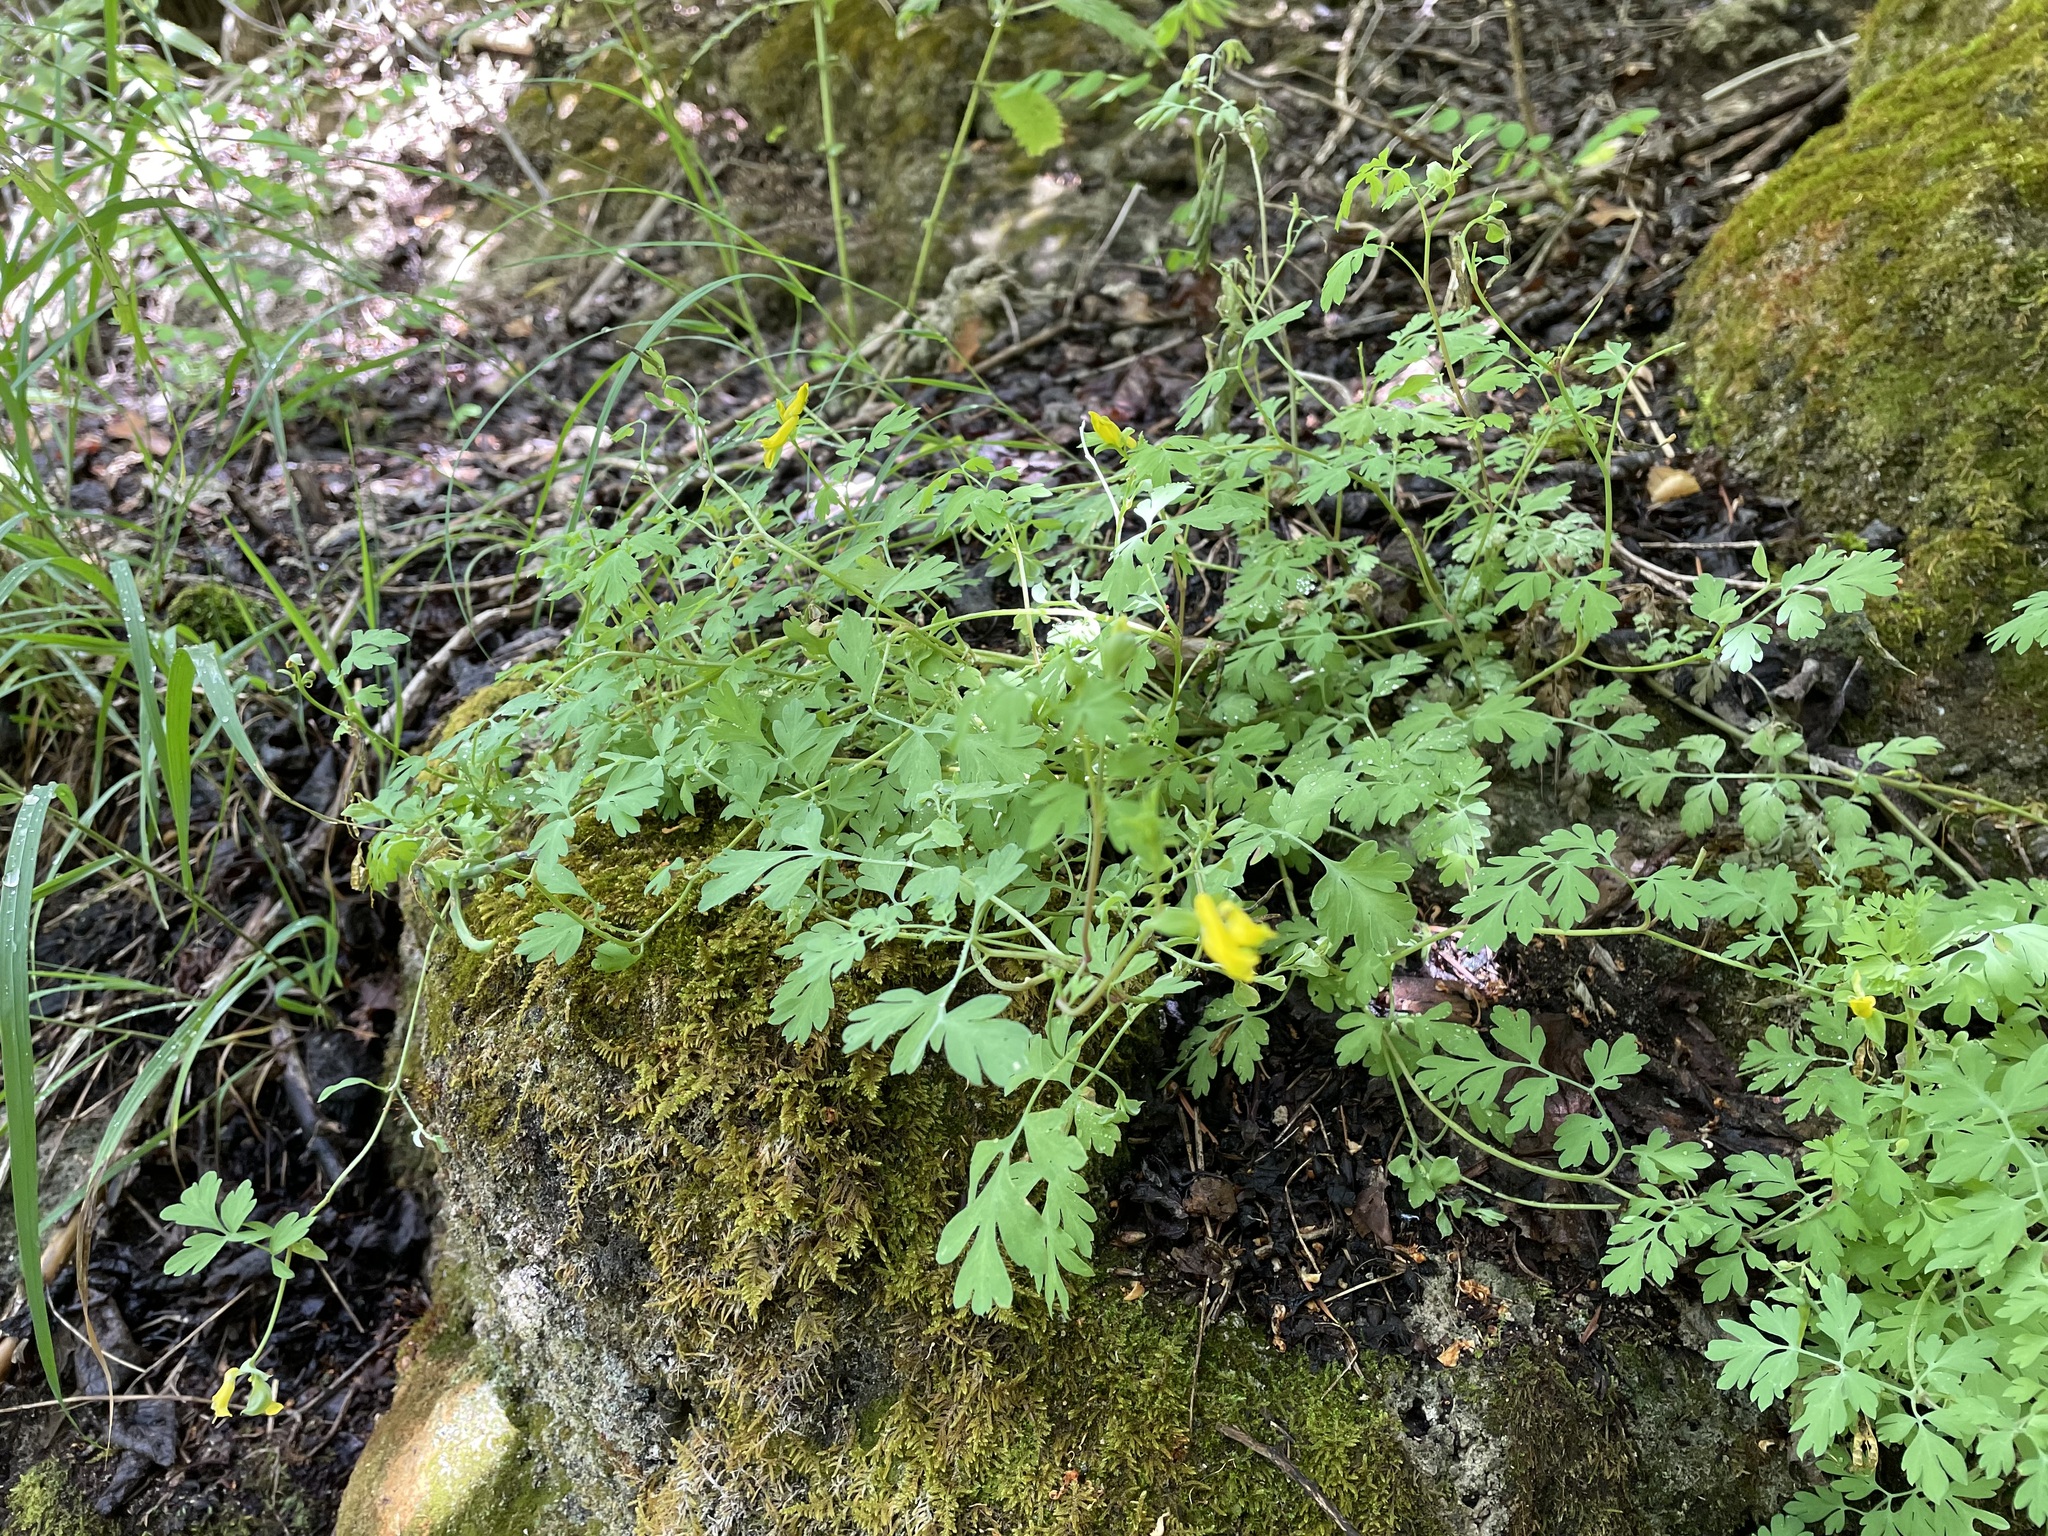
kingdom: Plantae
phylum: Tracheophyta
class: Magnoliopsida
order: Ranunculales
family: Papaveraceae
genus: Corydalis
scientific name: Corydalis aurea
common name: Golden corydalis
